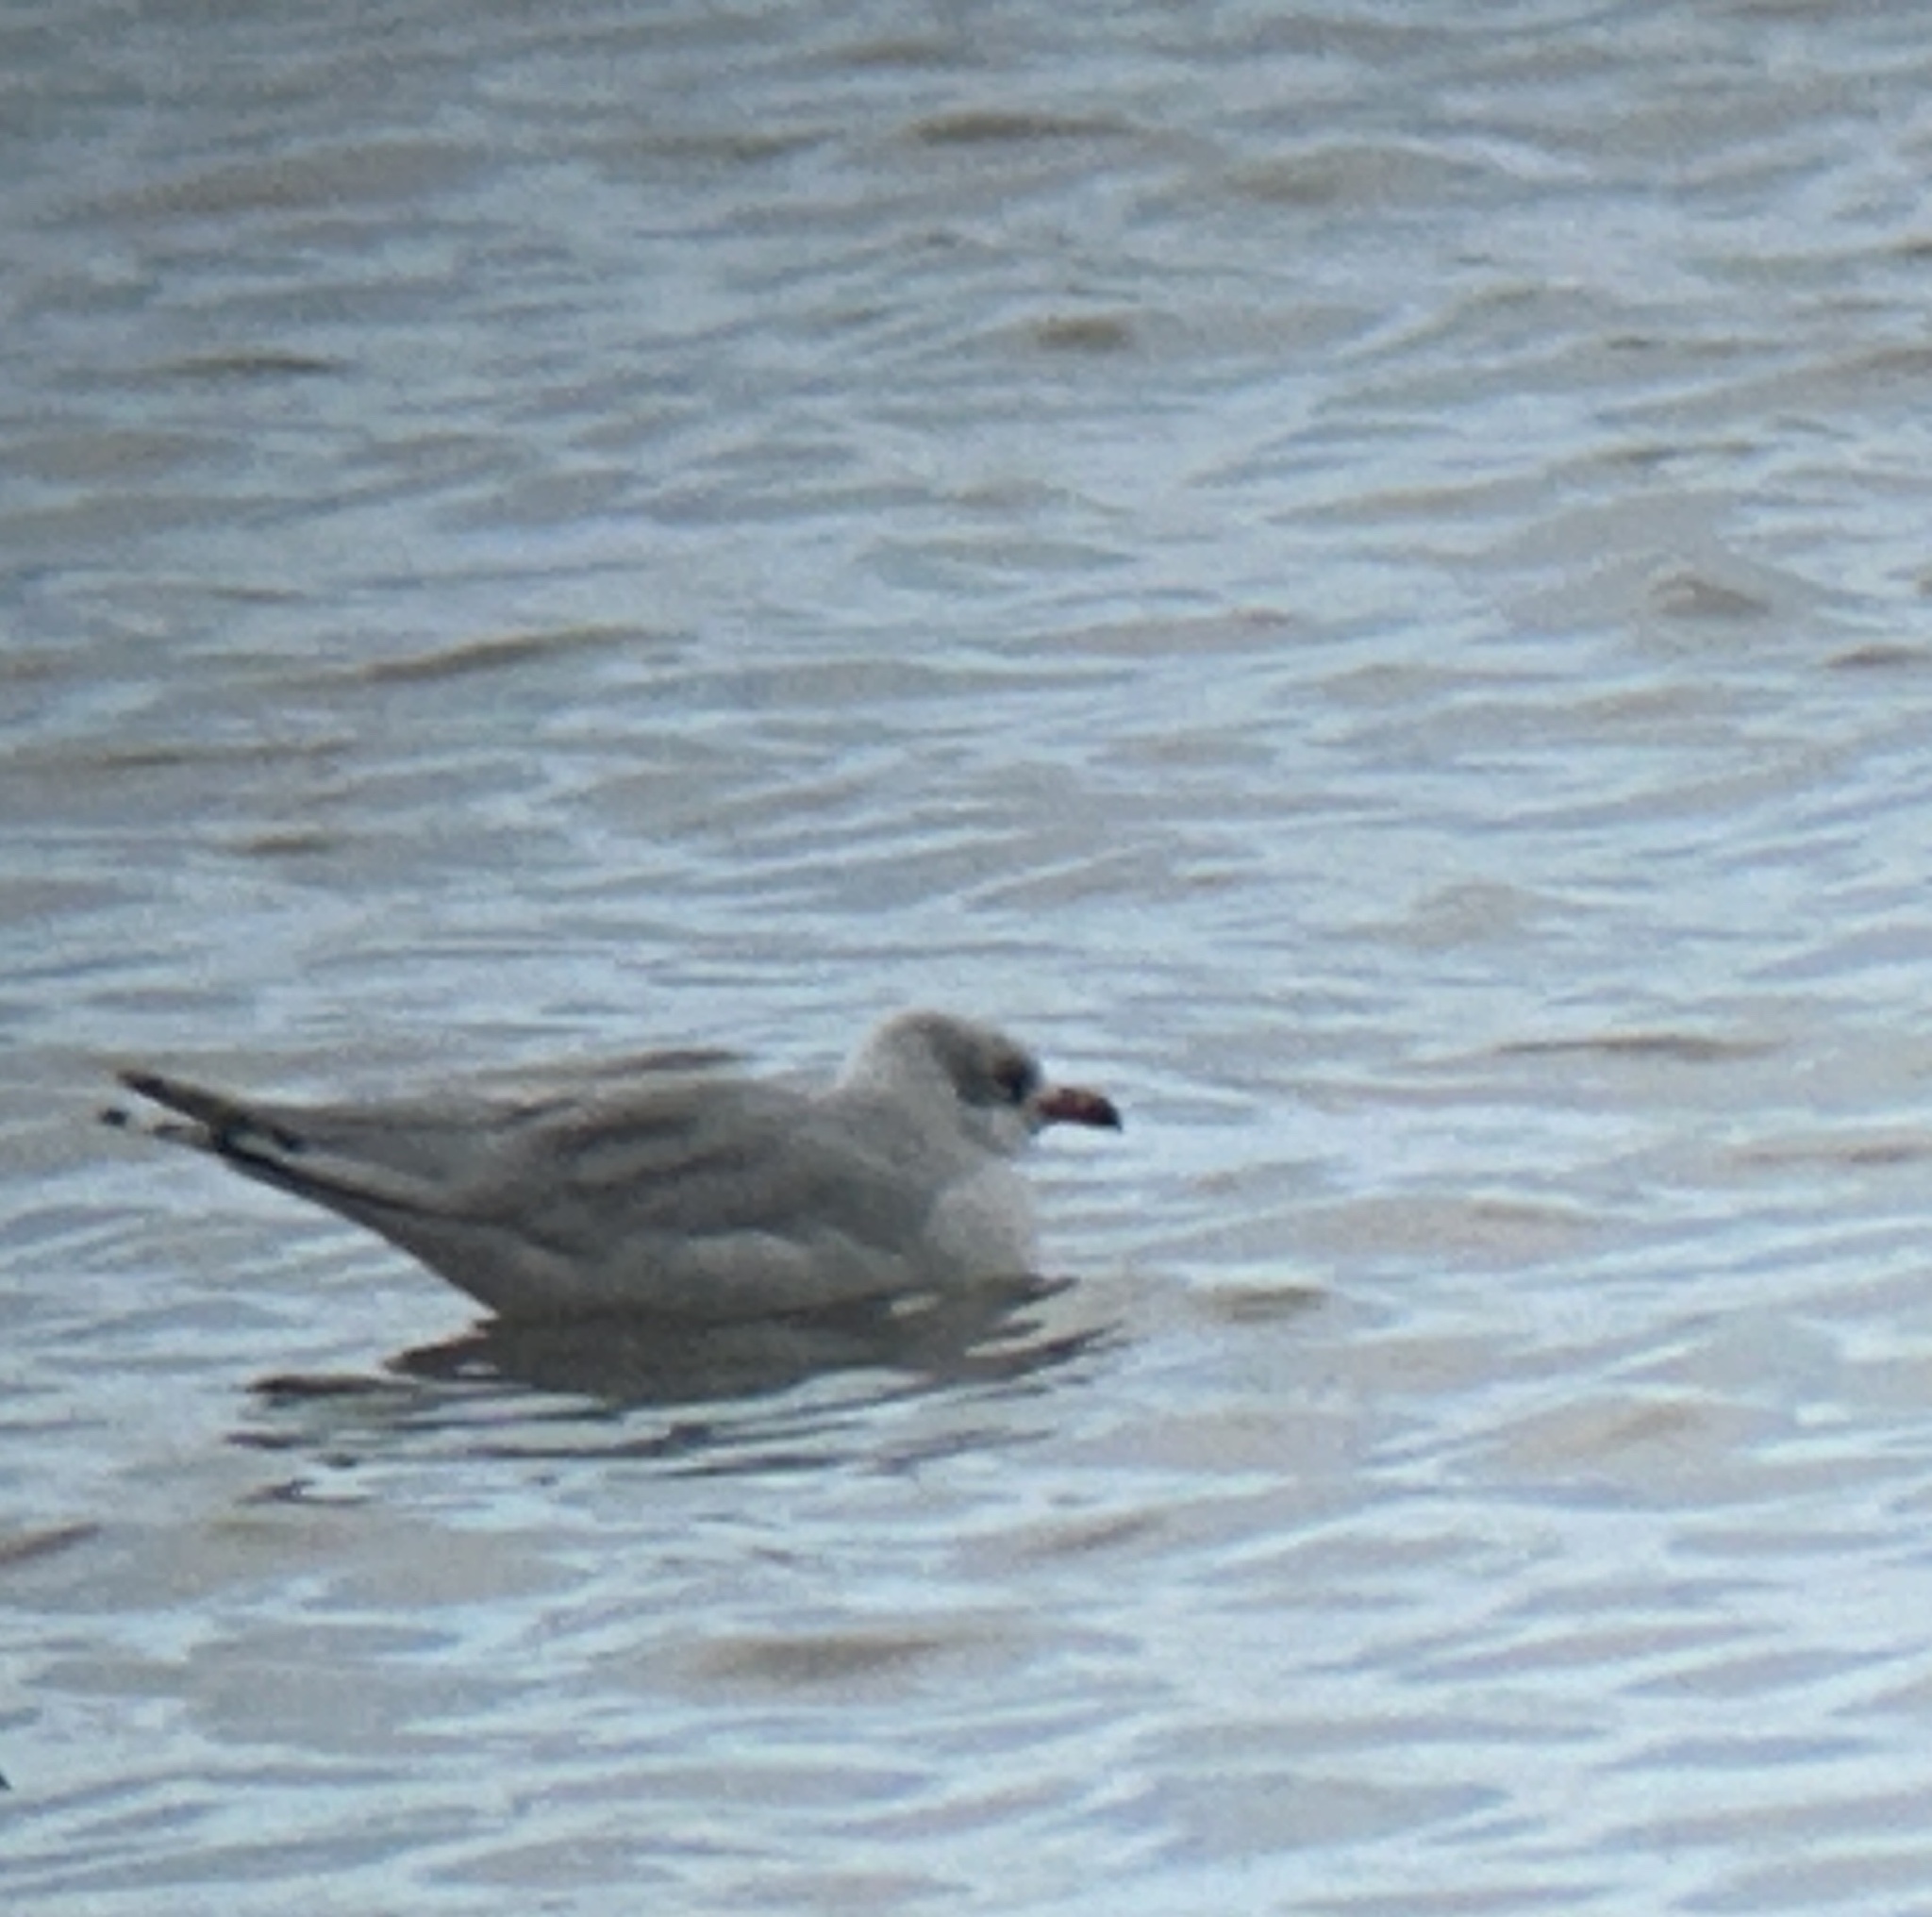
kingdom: Animalia
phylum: Chordata
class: Aves
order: Charadriiformes
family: Laridae
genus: Ichthyaetus
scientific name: Ichthyaetus melanocephalus
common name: Mediterranean gull
